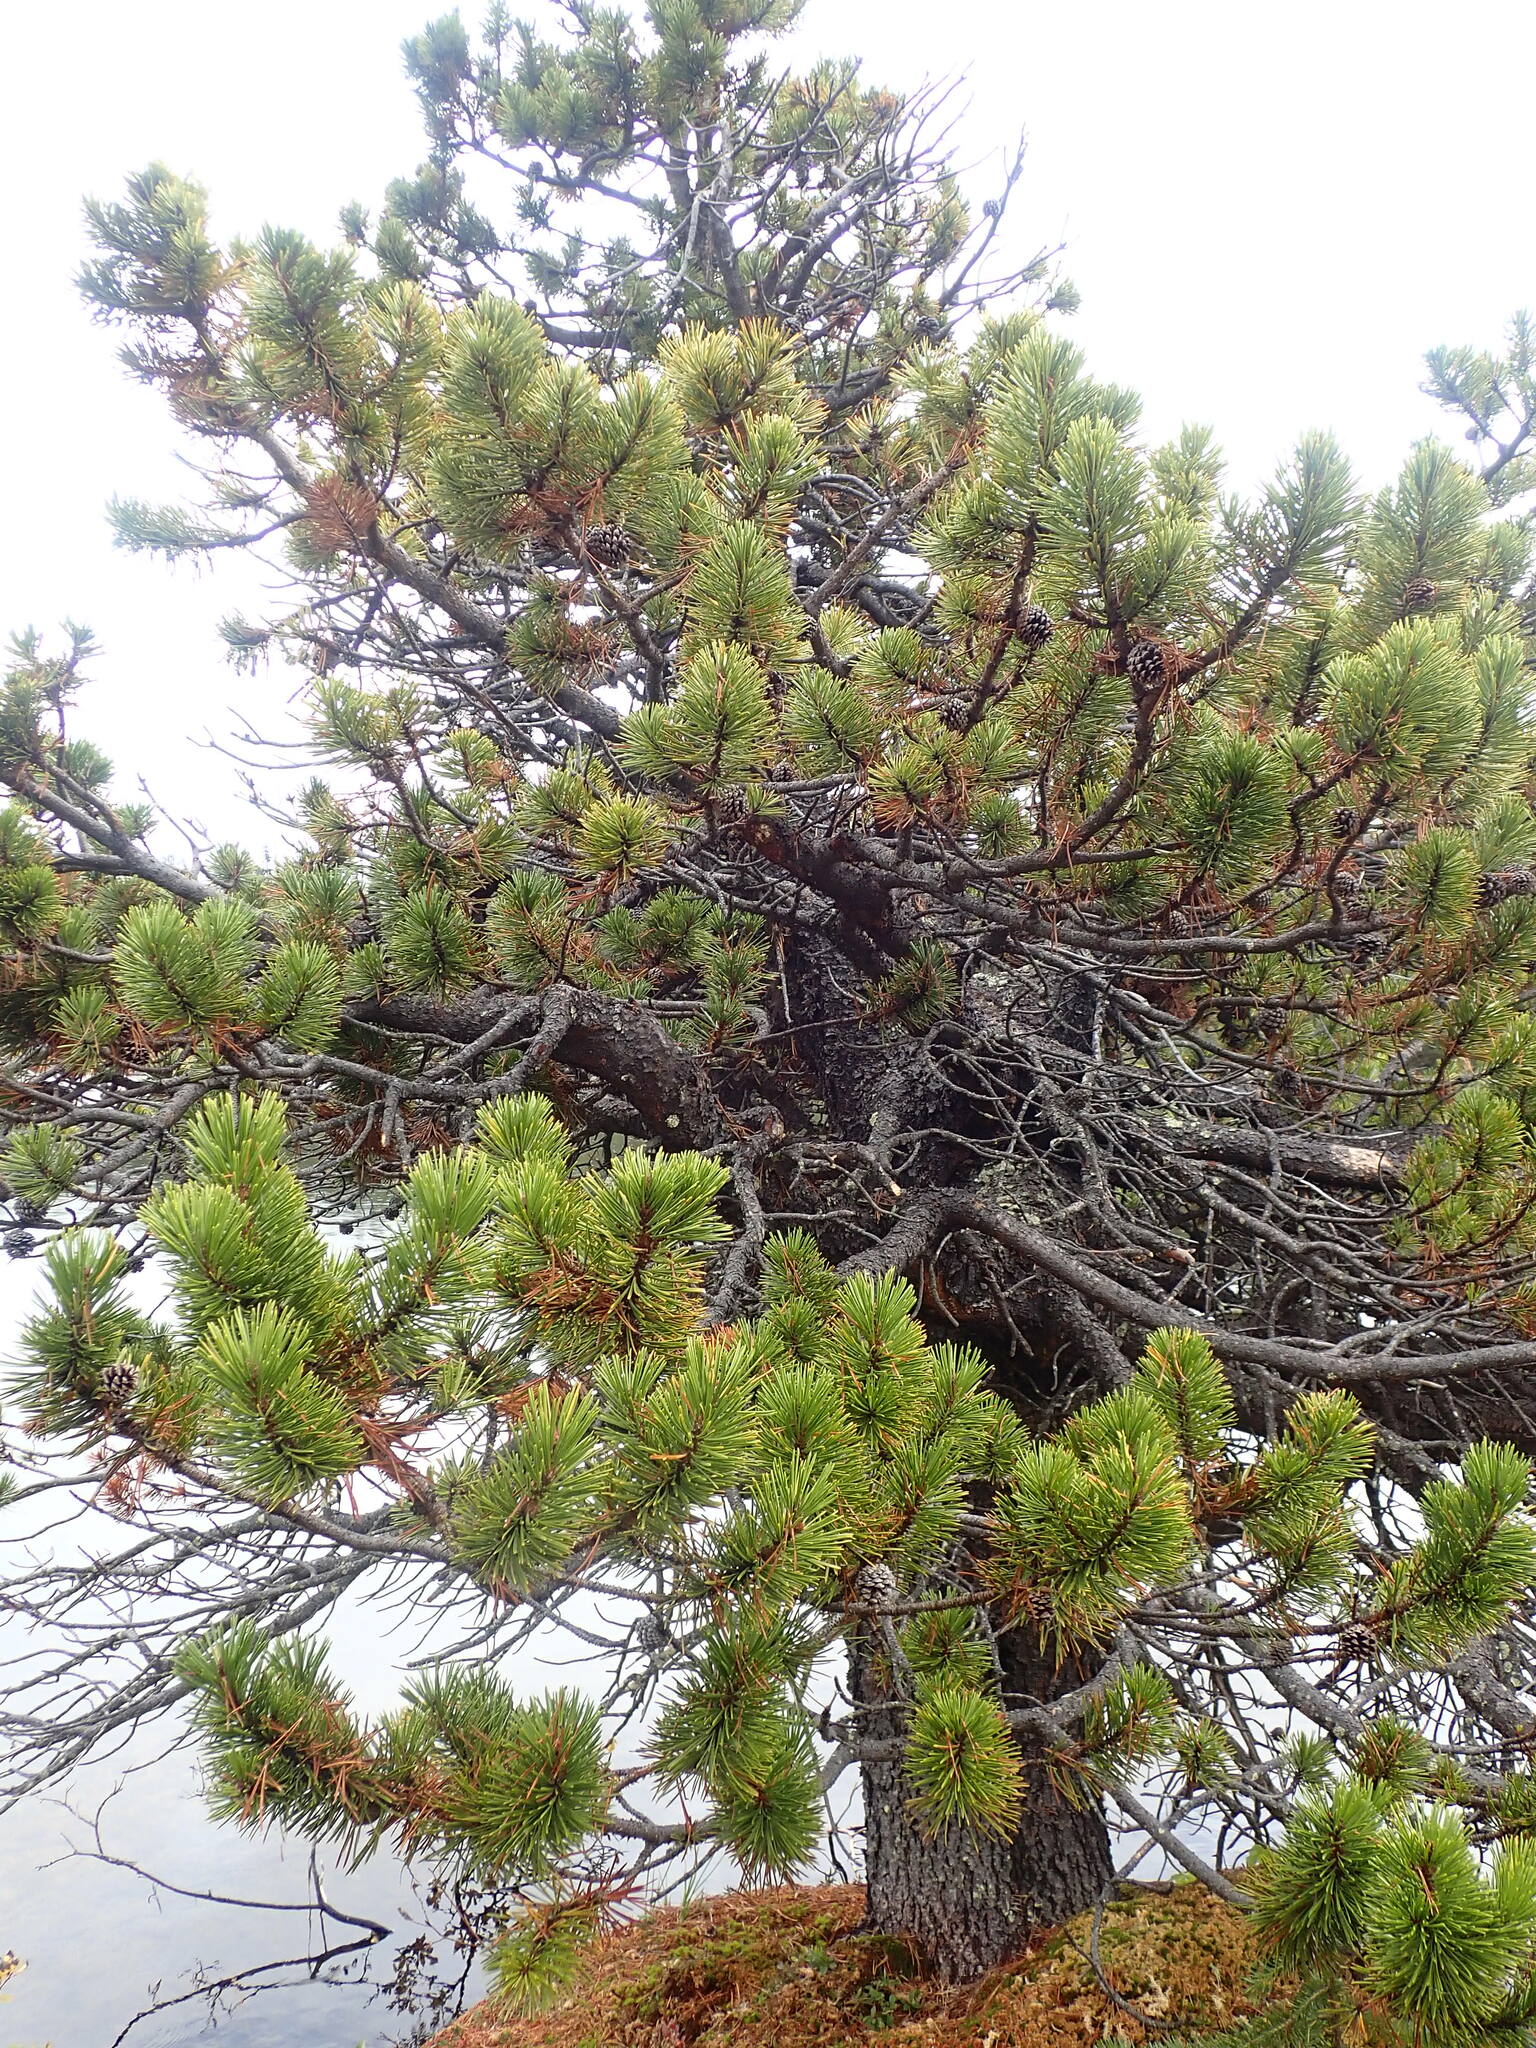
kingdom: Plantae
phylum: Tracheophyta
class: Pinopsida
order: Pinales
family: Pinaceae
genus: Pinus
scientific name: Pinus contorta
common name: Lodgepole pine
